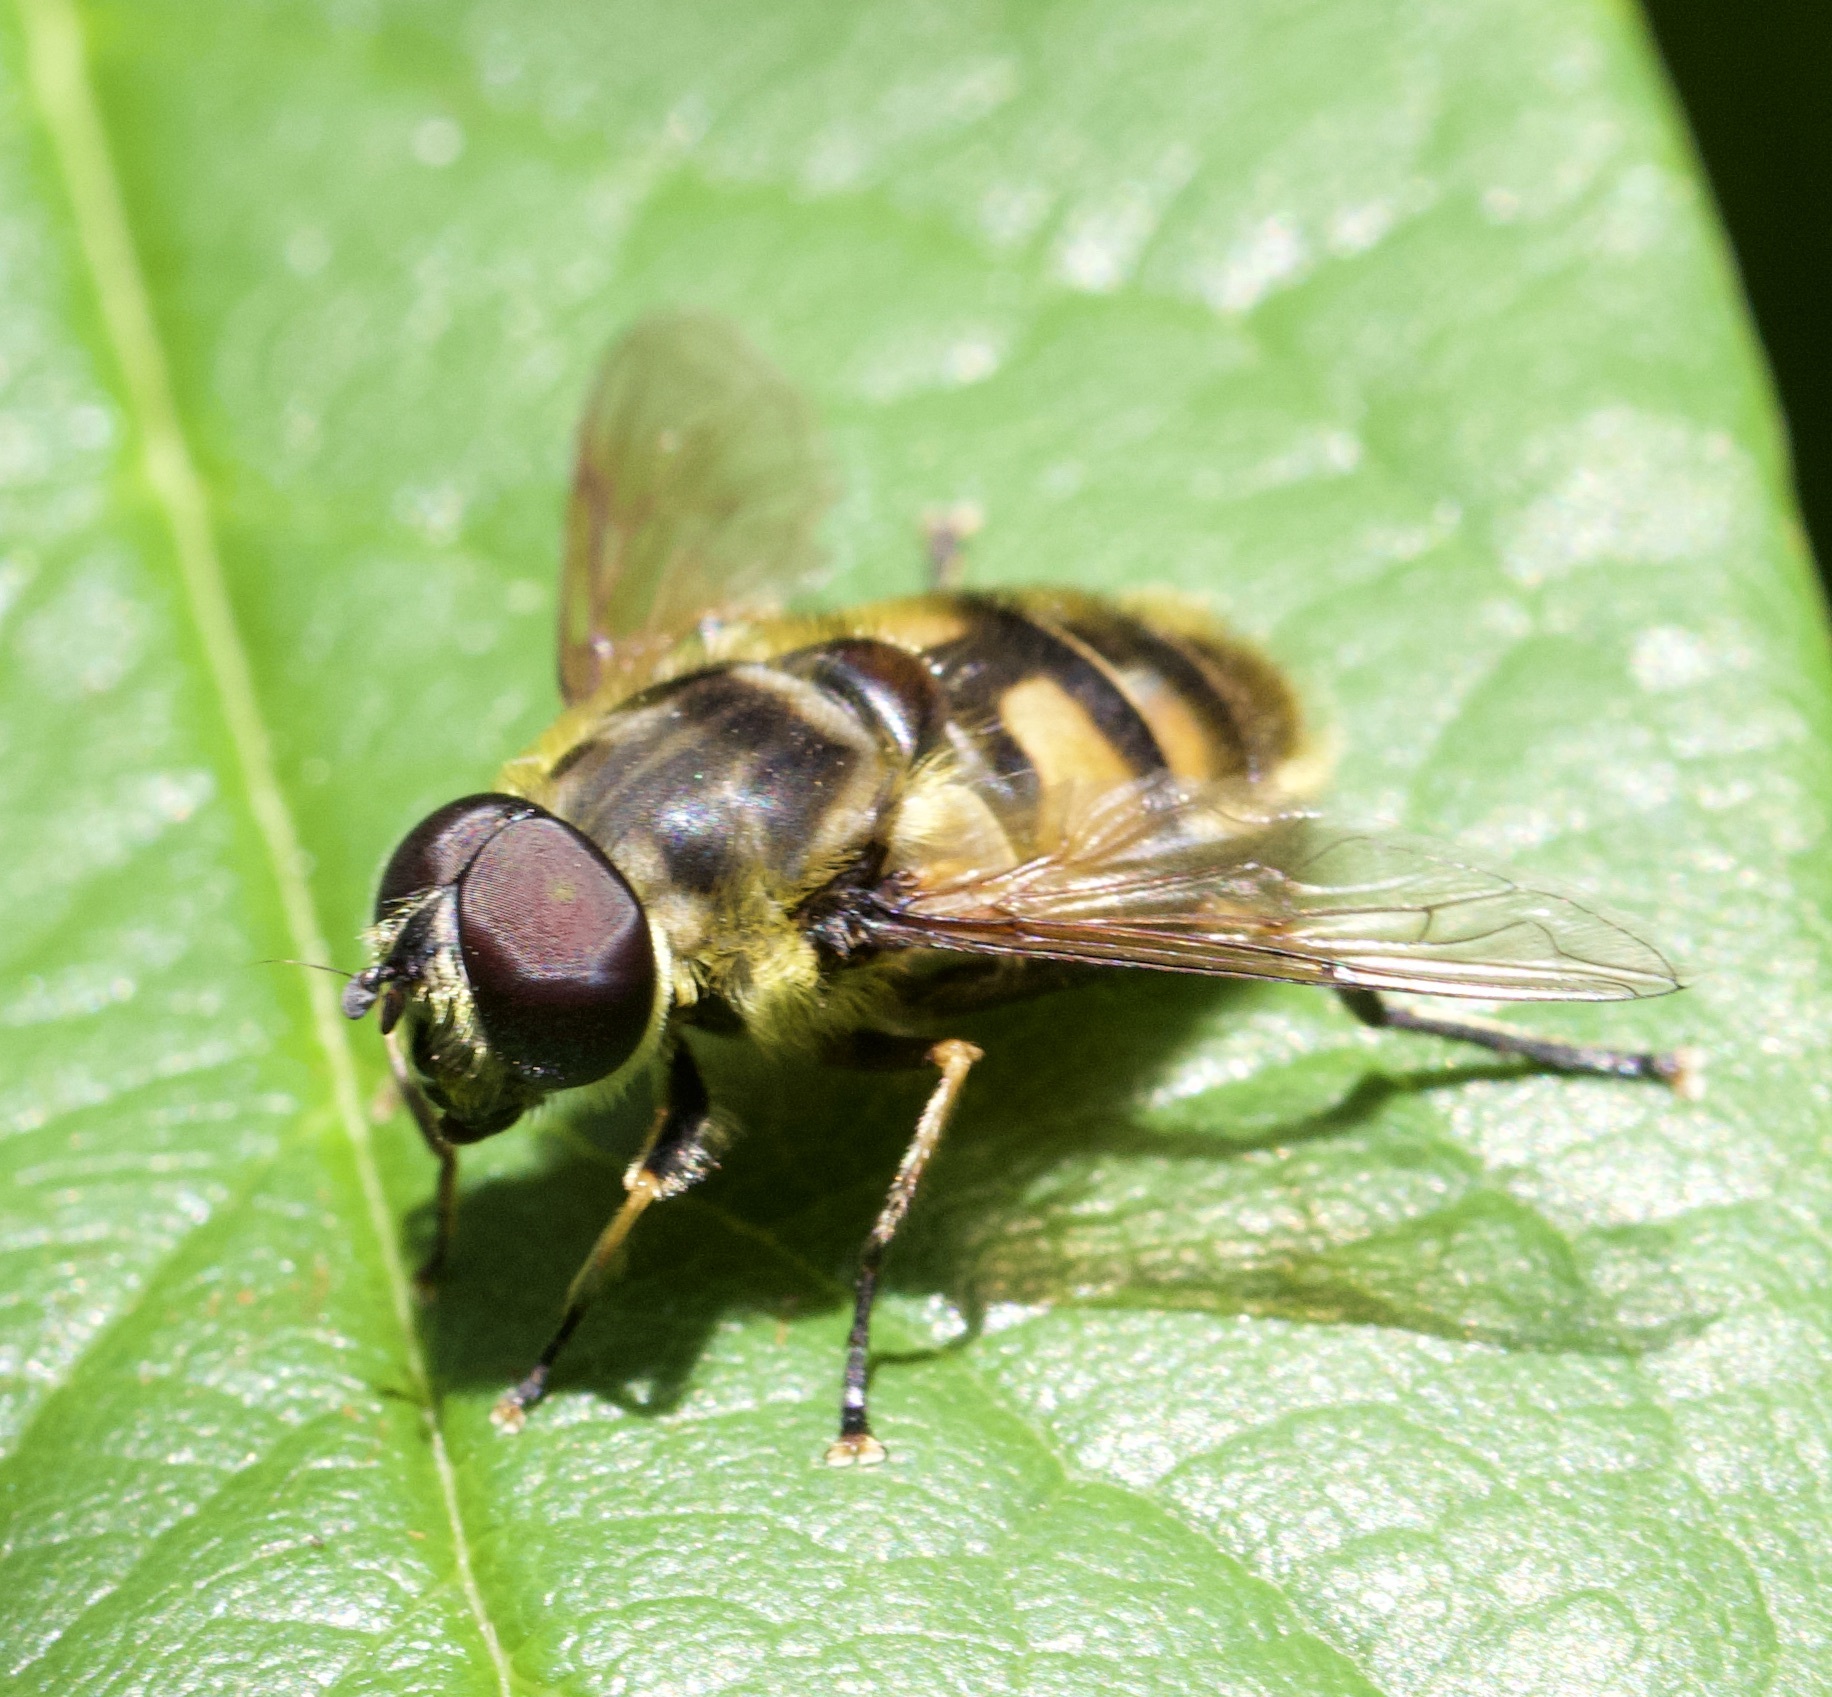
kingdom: Animalia
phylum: Arthropoda
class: Insecta
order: Diptera
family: Syrphidae
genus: Myathropa
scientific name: Myathropa florea
